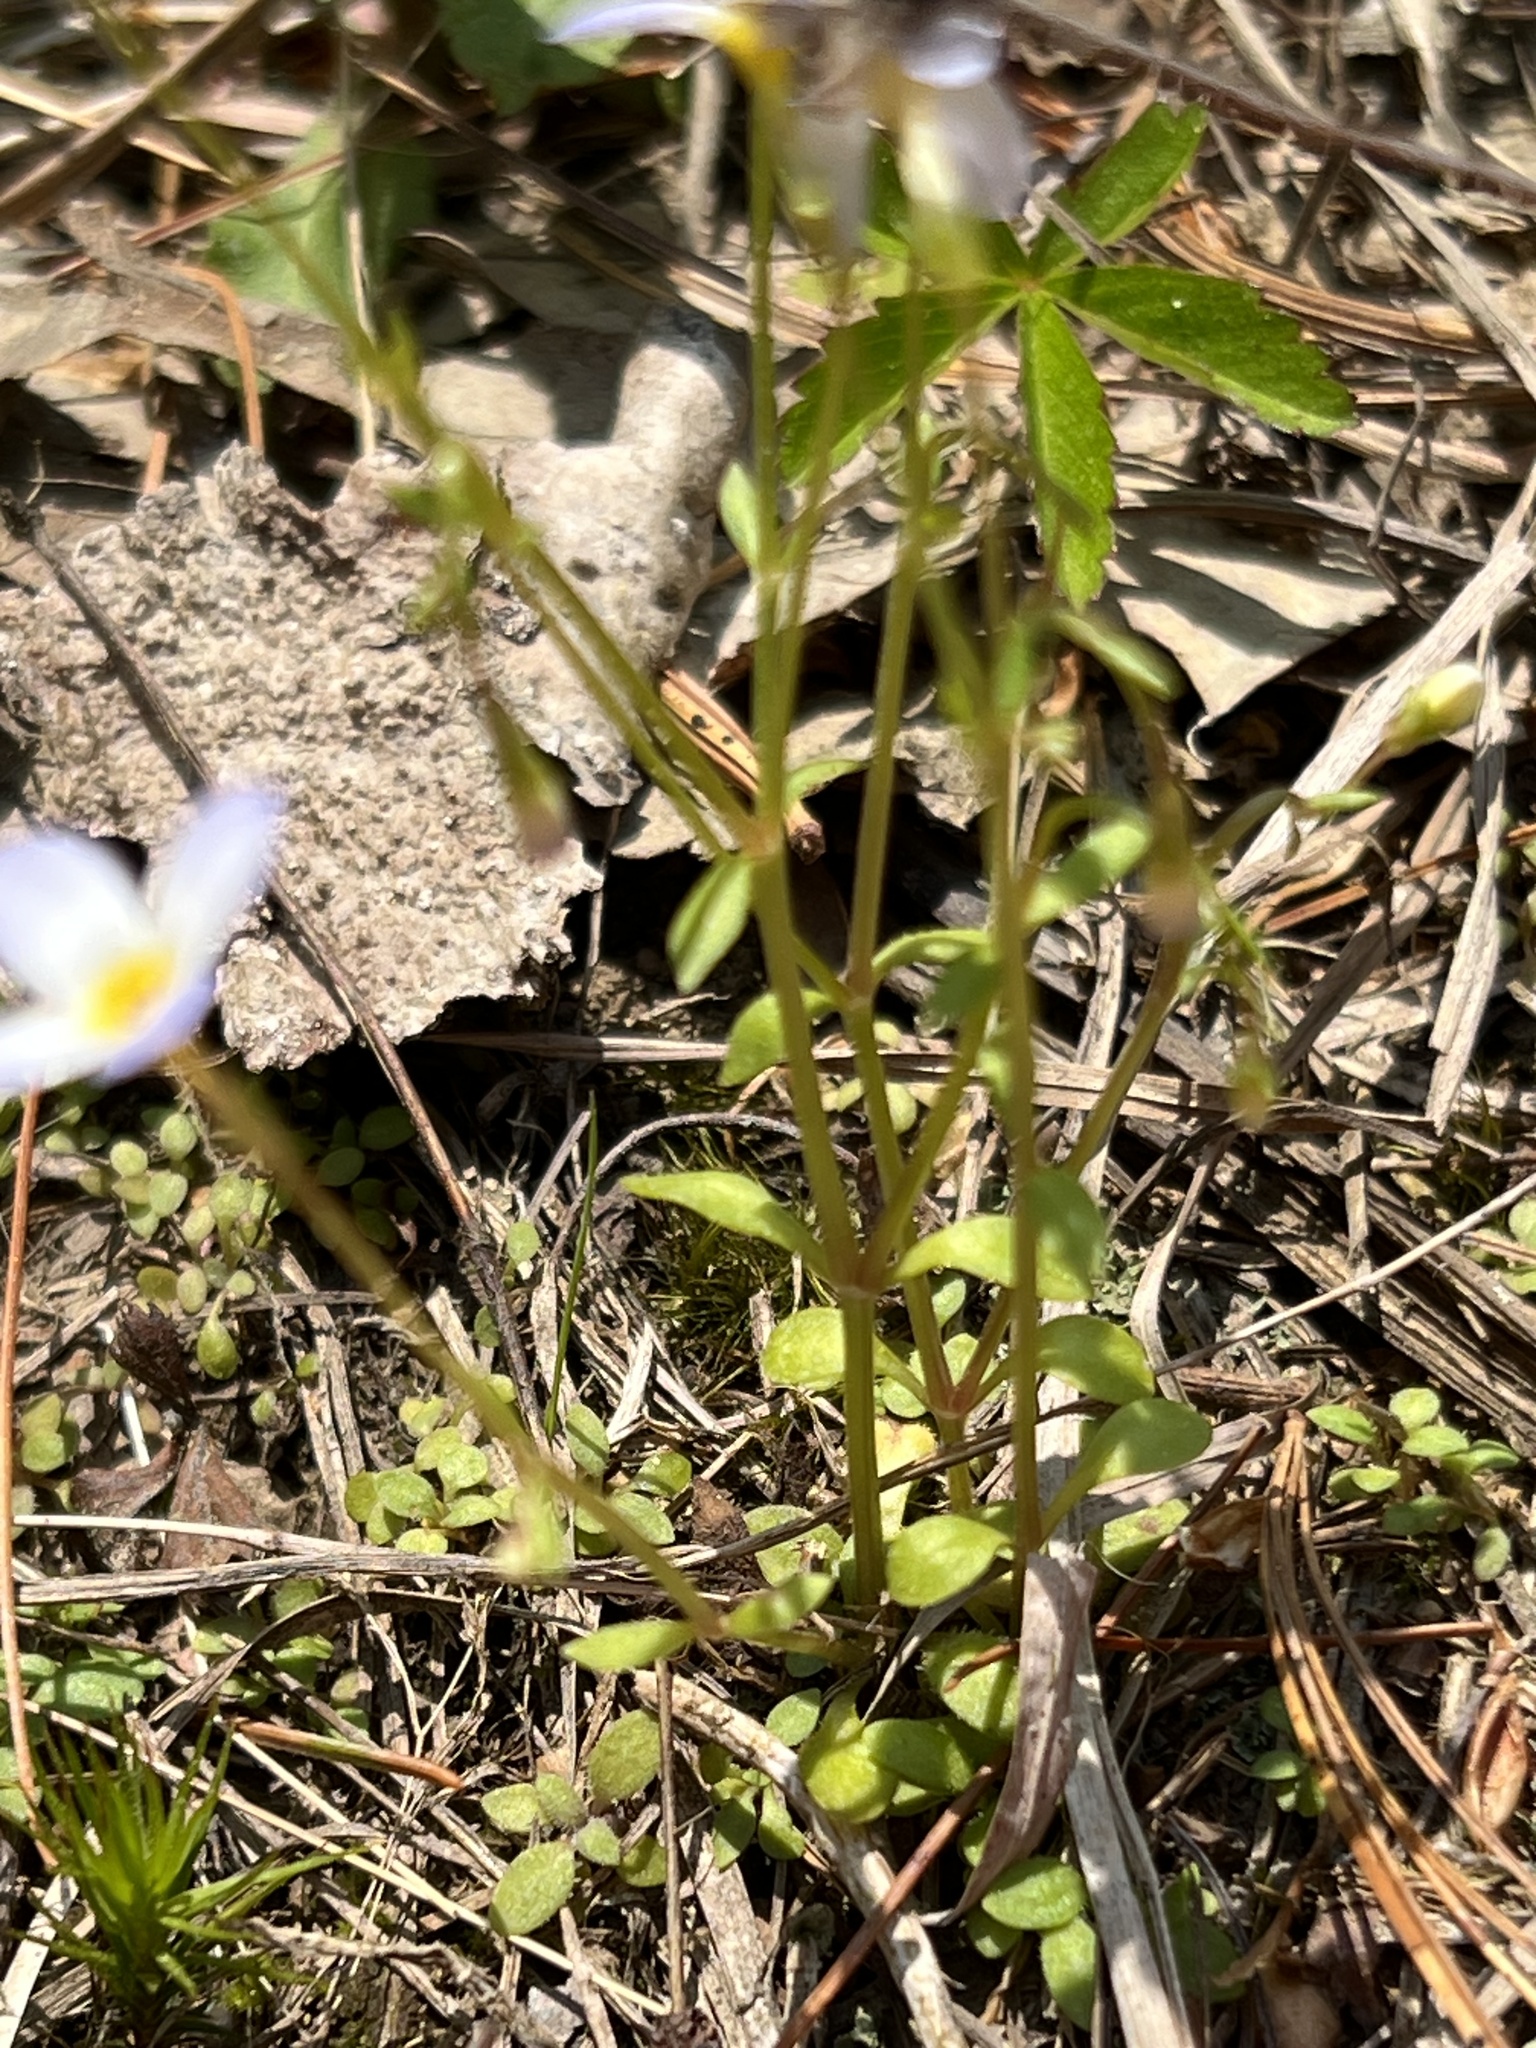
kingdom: Plantae
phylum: Tracheophyta
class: Magnoliopsida
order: Gentianales
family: Rubiaceae
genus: Houstonia
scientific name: Houstonia caerulea
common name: Bluets
